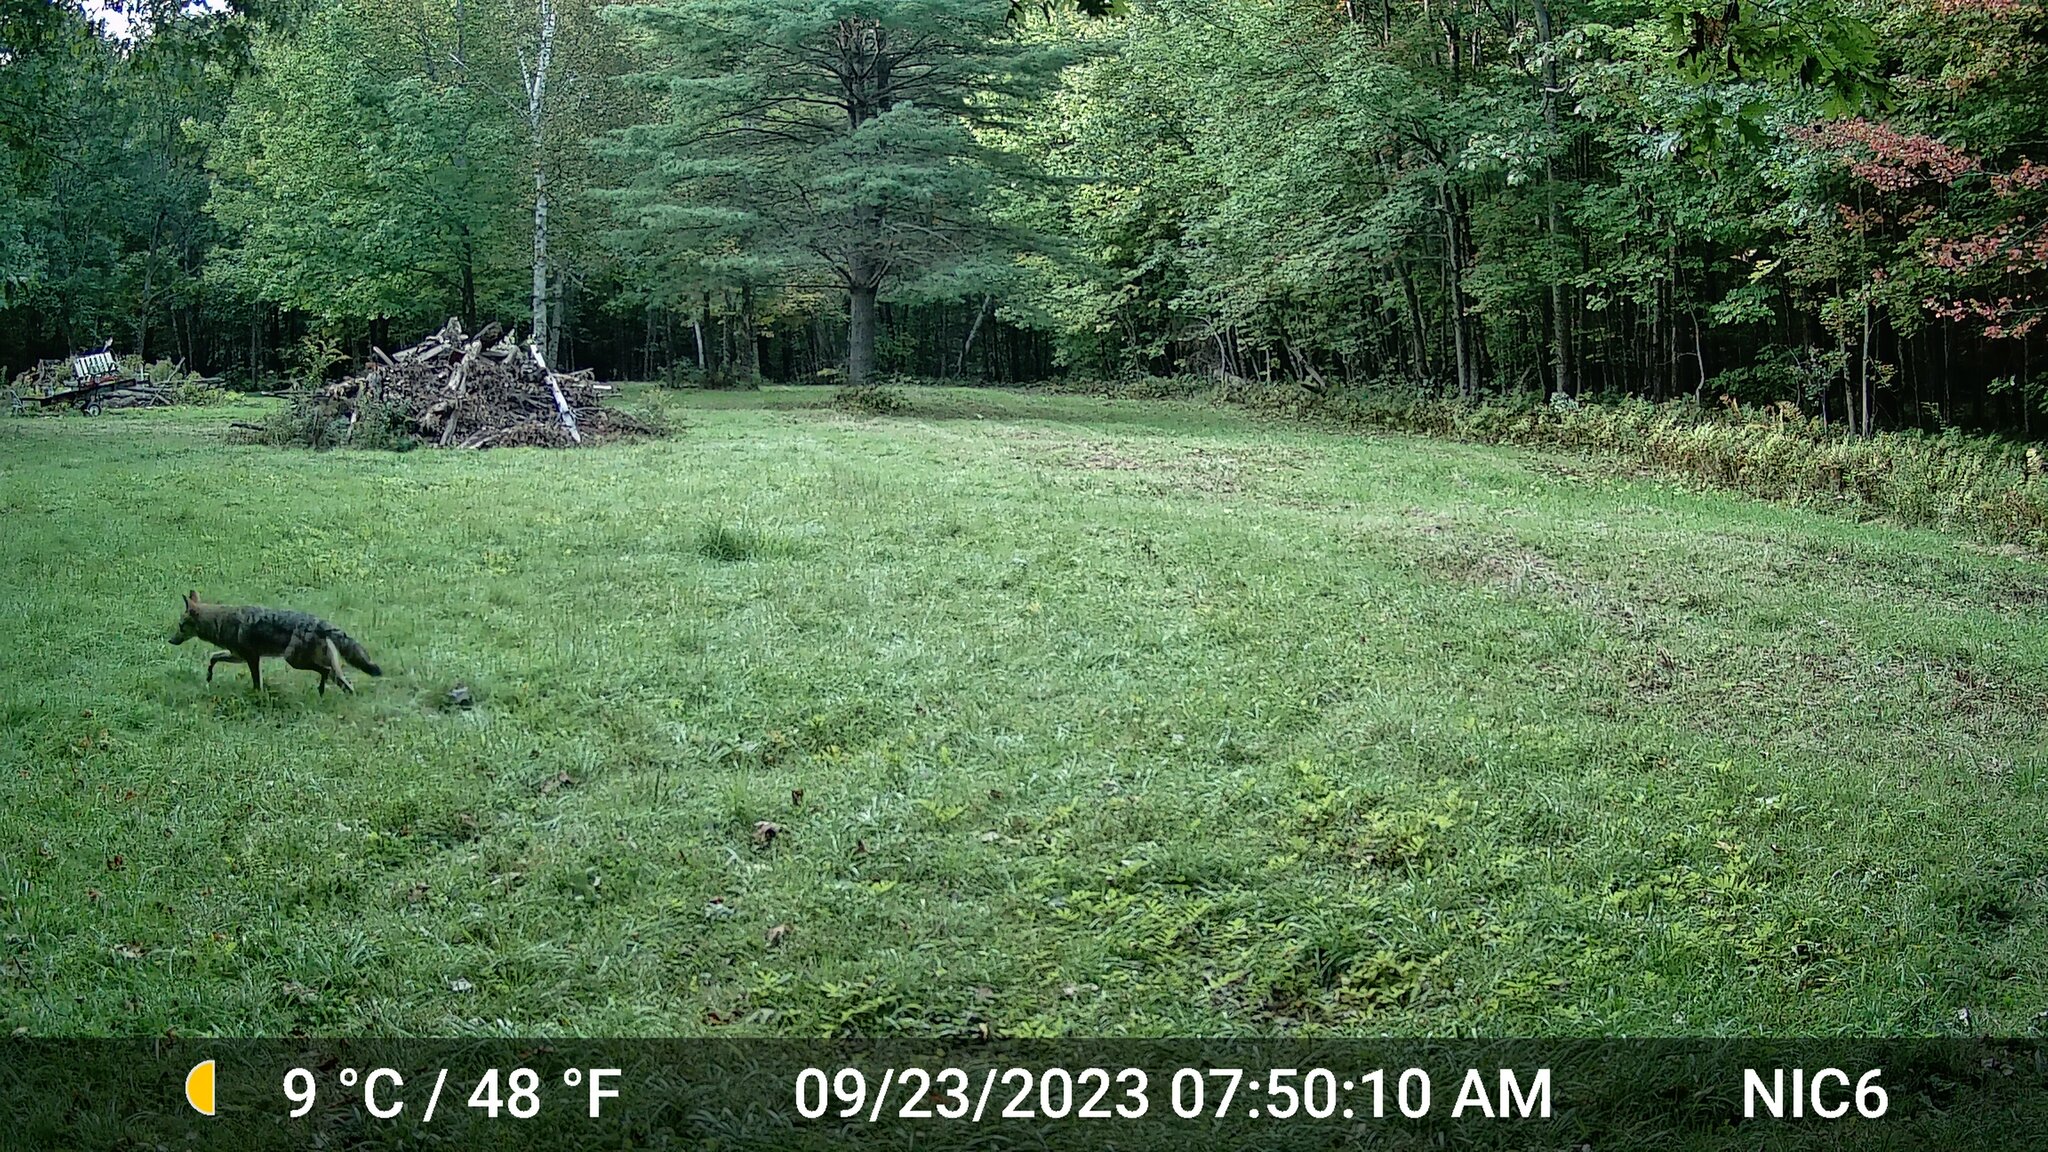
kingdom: Animalia
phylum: Chordata
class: Mammalia
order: Carnivora
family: Canidae
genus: Canis
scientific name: Canis latrans
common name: Coyote
